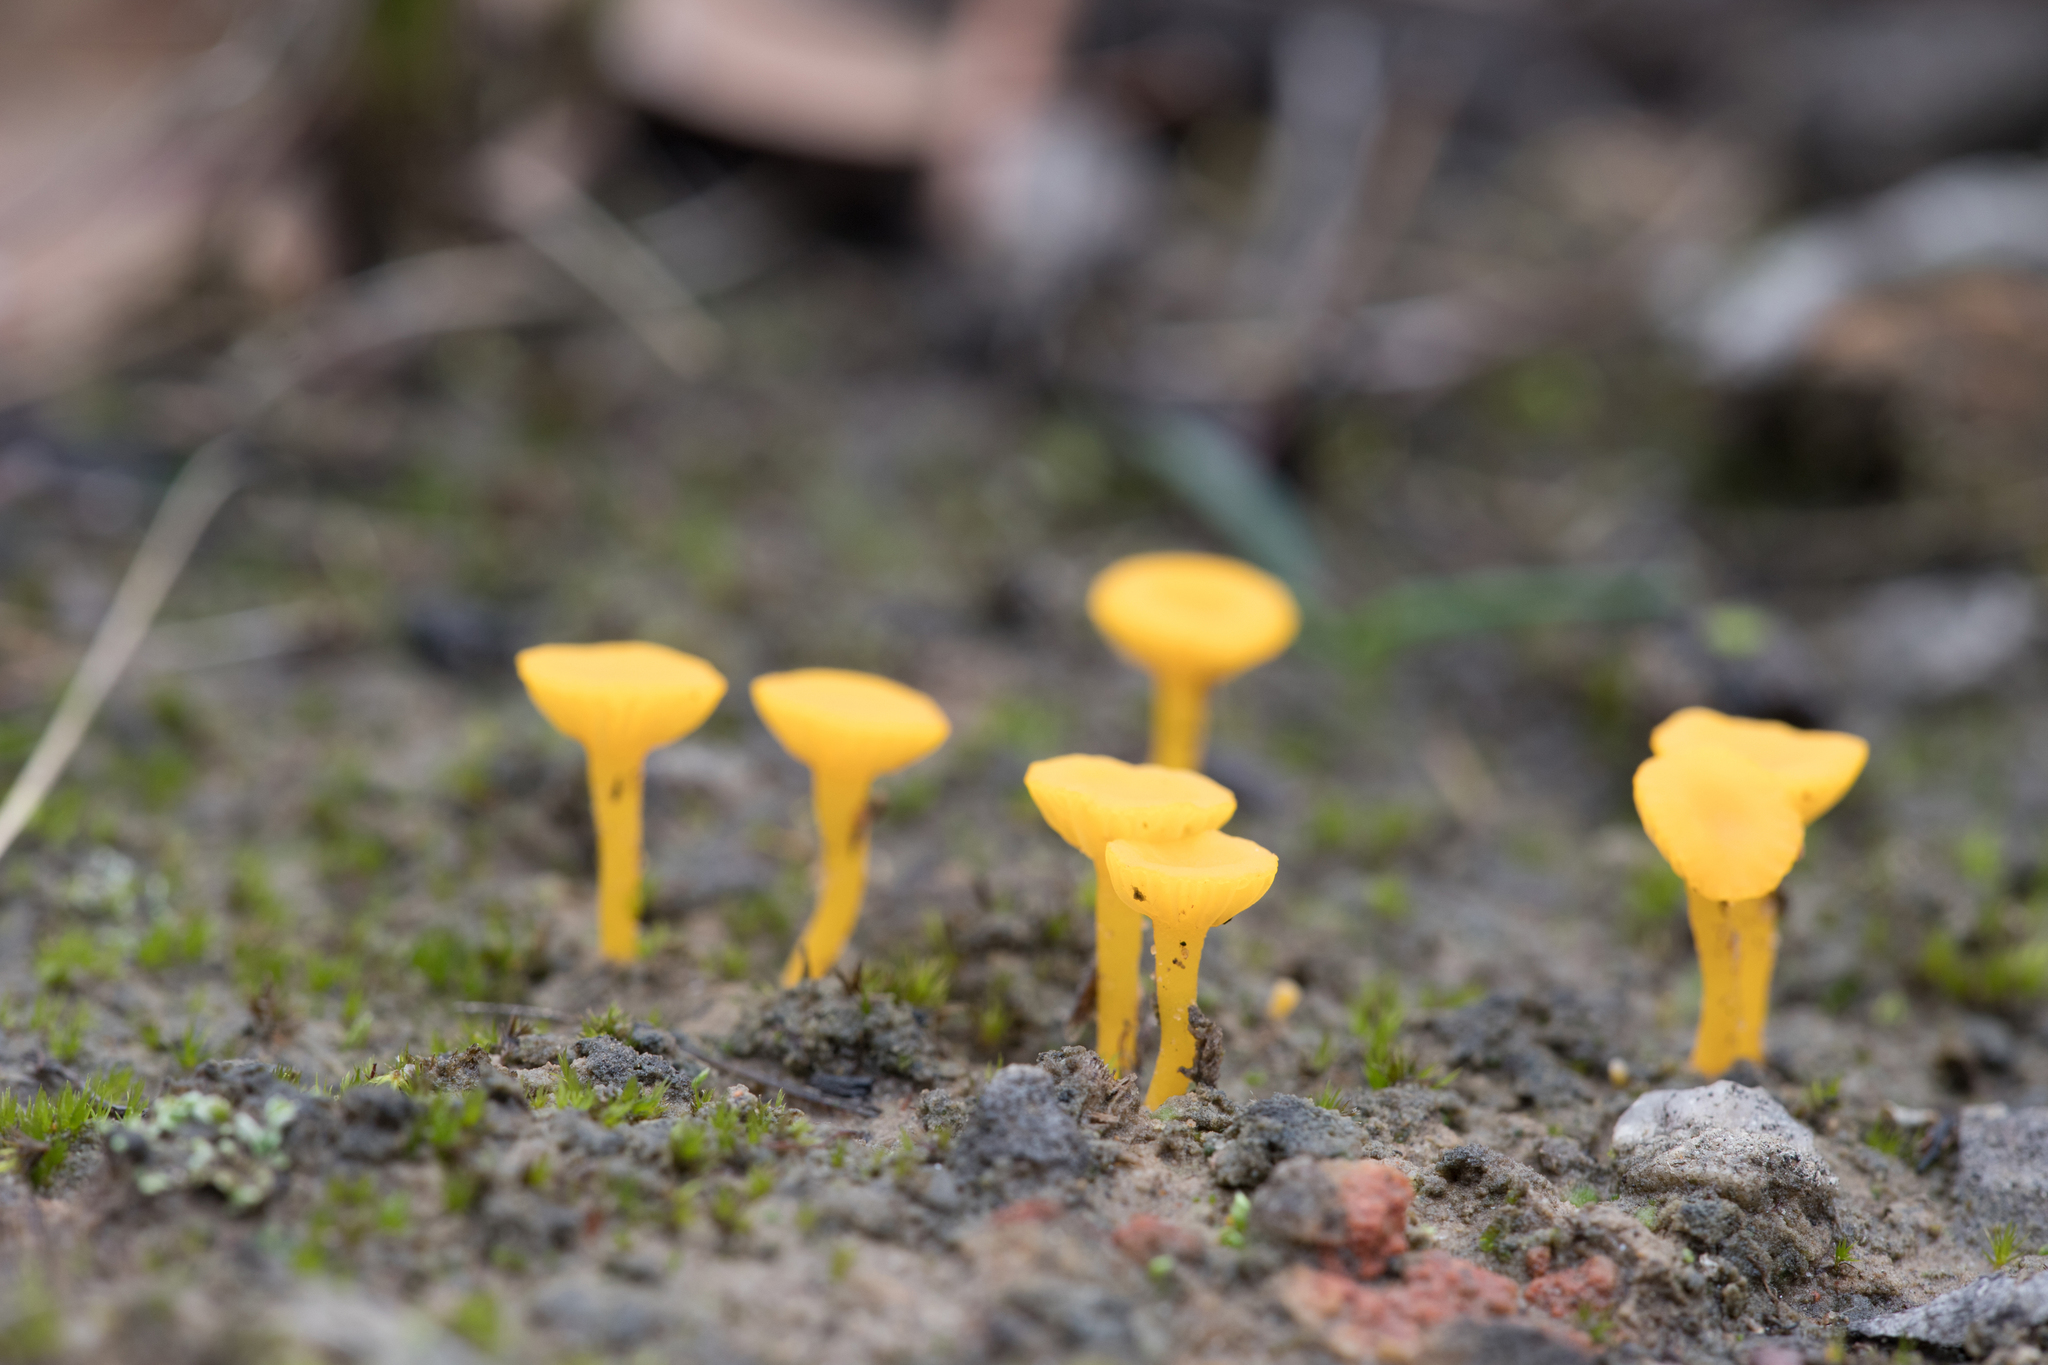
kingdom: Fungi
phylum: Basidiomycota
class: Agaricomycetes
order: Agaricales
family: Hygrophoraceae
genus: Lichenomphalia
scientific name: Lichenomphalia chromacea
